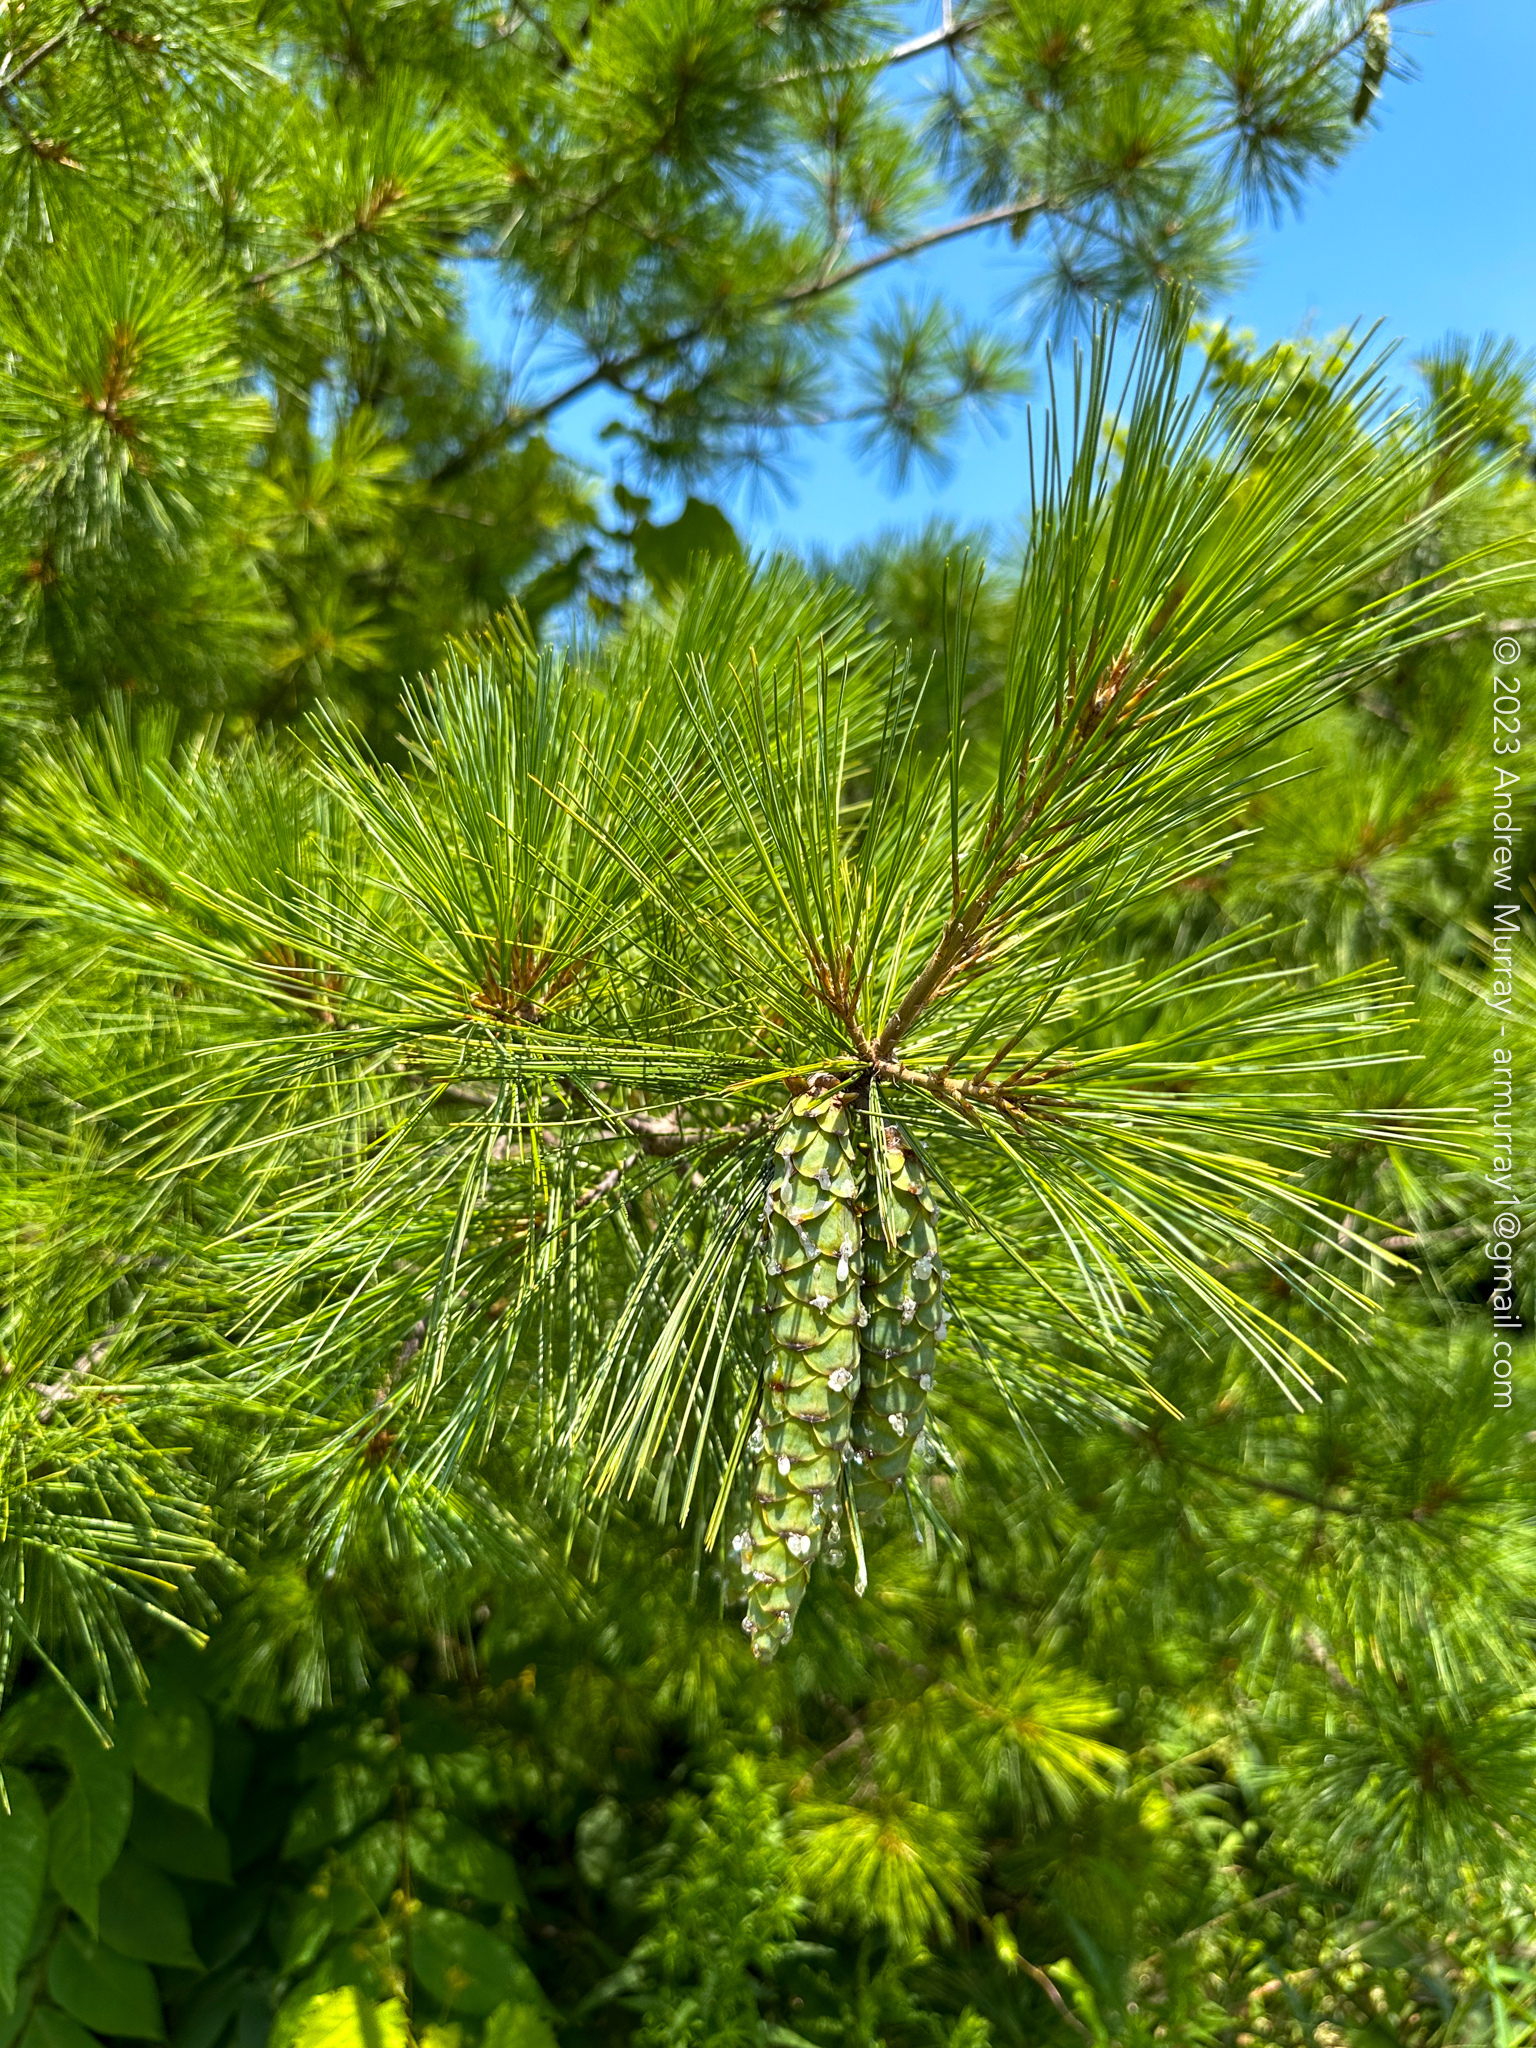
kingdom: Plantae
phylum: Tracheophyta
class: Pinopsida
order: Pinales
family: Pinaceae
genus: Pinus
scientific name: Pinus strobus
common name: Weymouth pine
